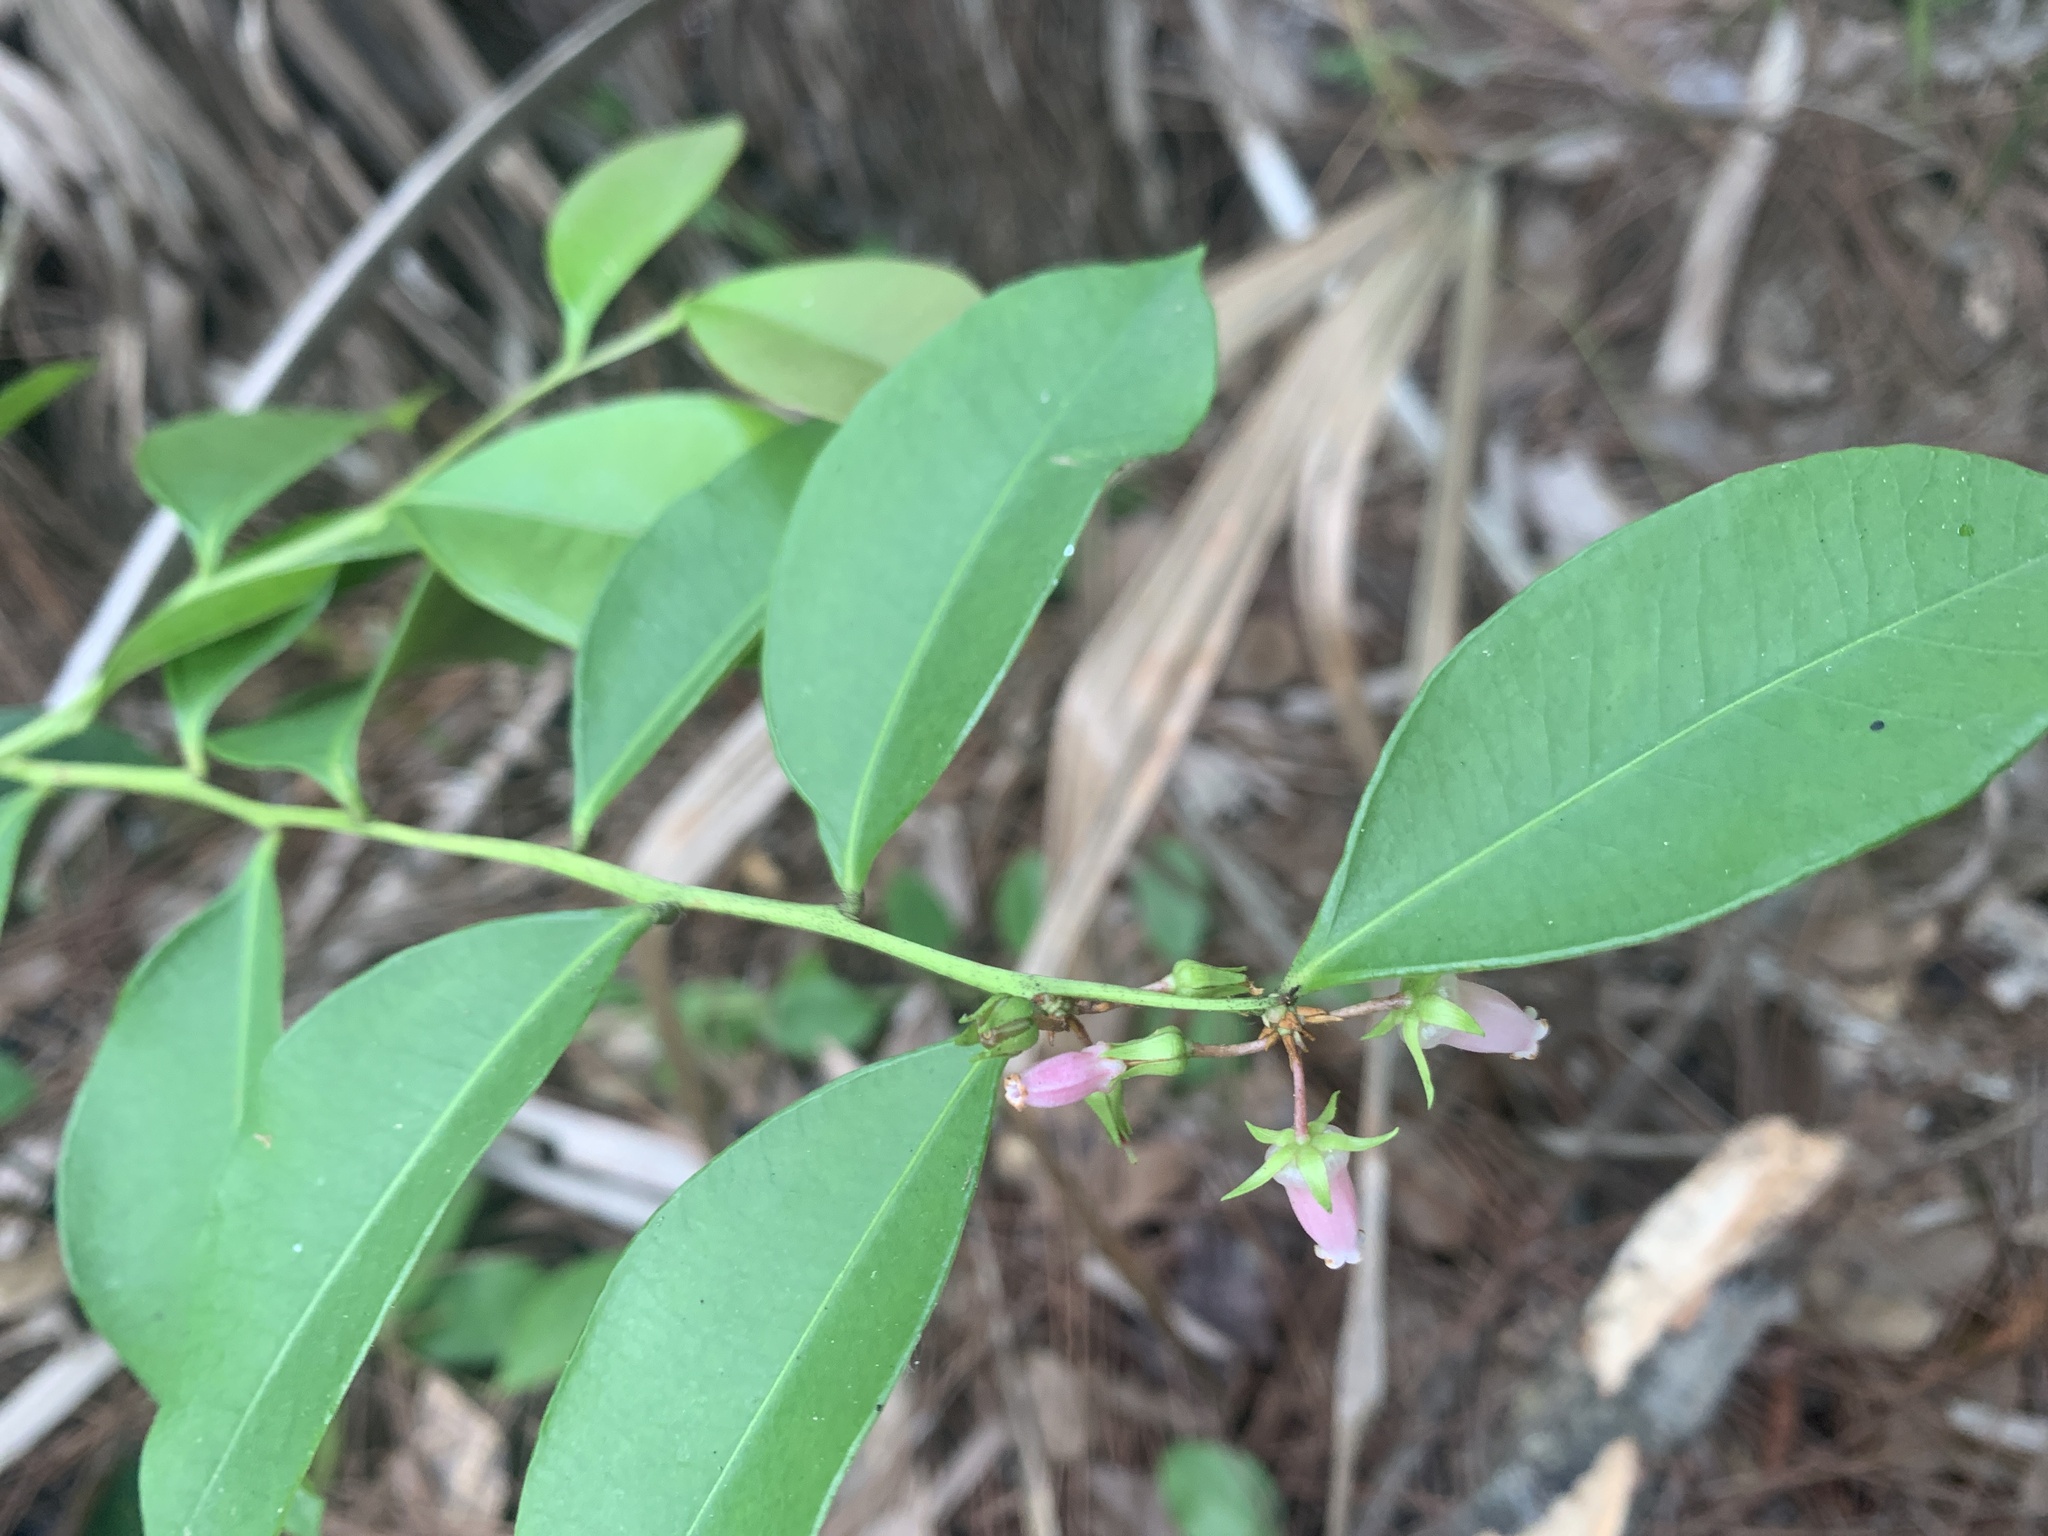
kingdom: Plantae
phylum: Tracheophyta
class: Magnoliopsida
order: Ericales
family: Ericaceae
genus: Lyonia
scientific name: Lyonia lucida
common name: Fetterbush
